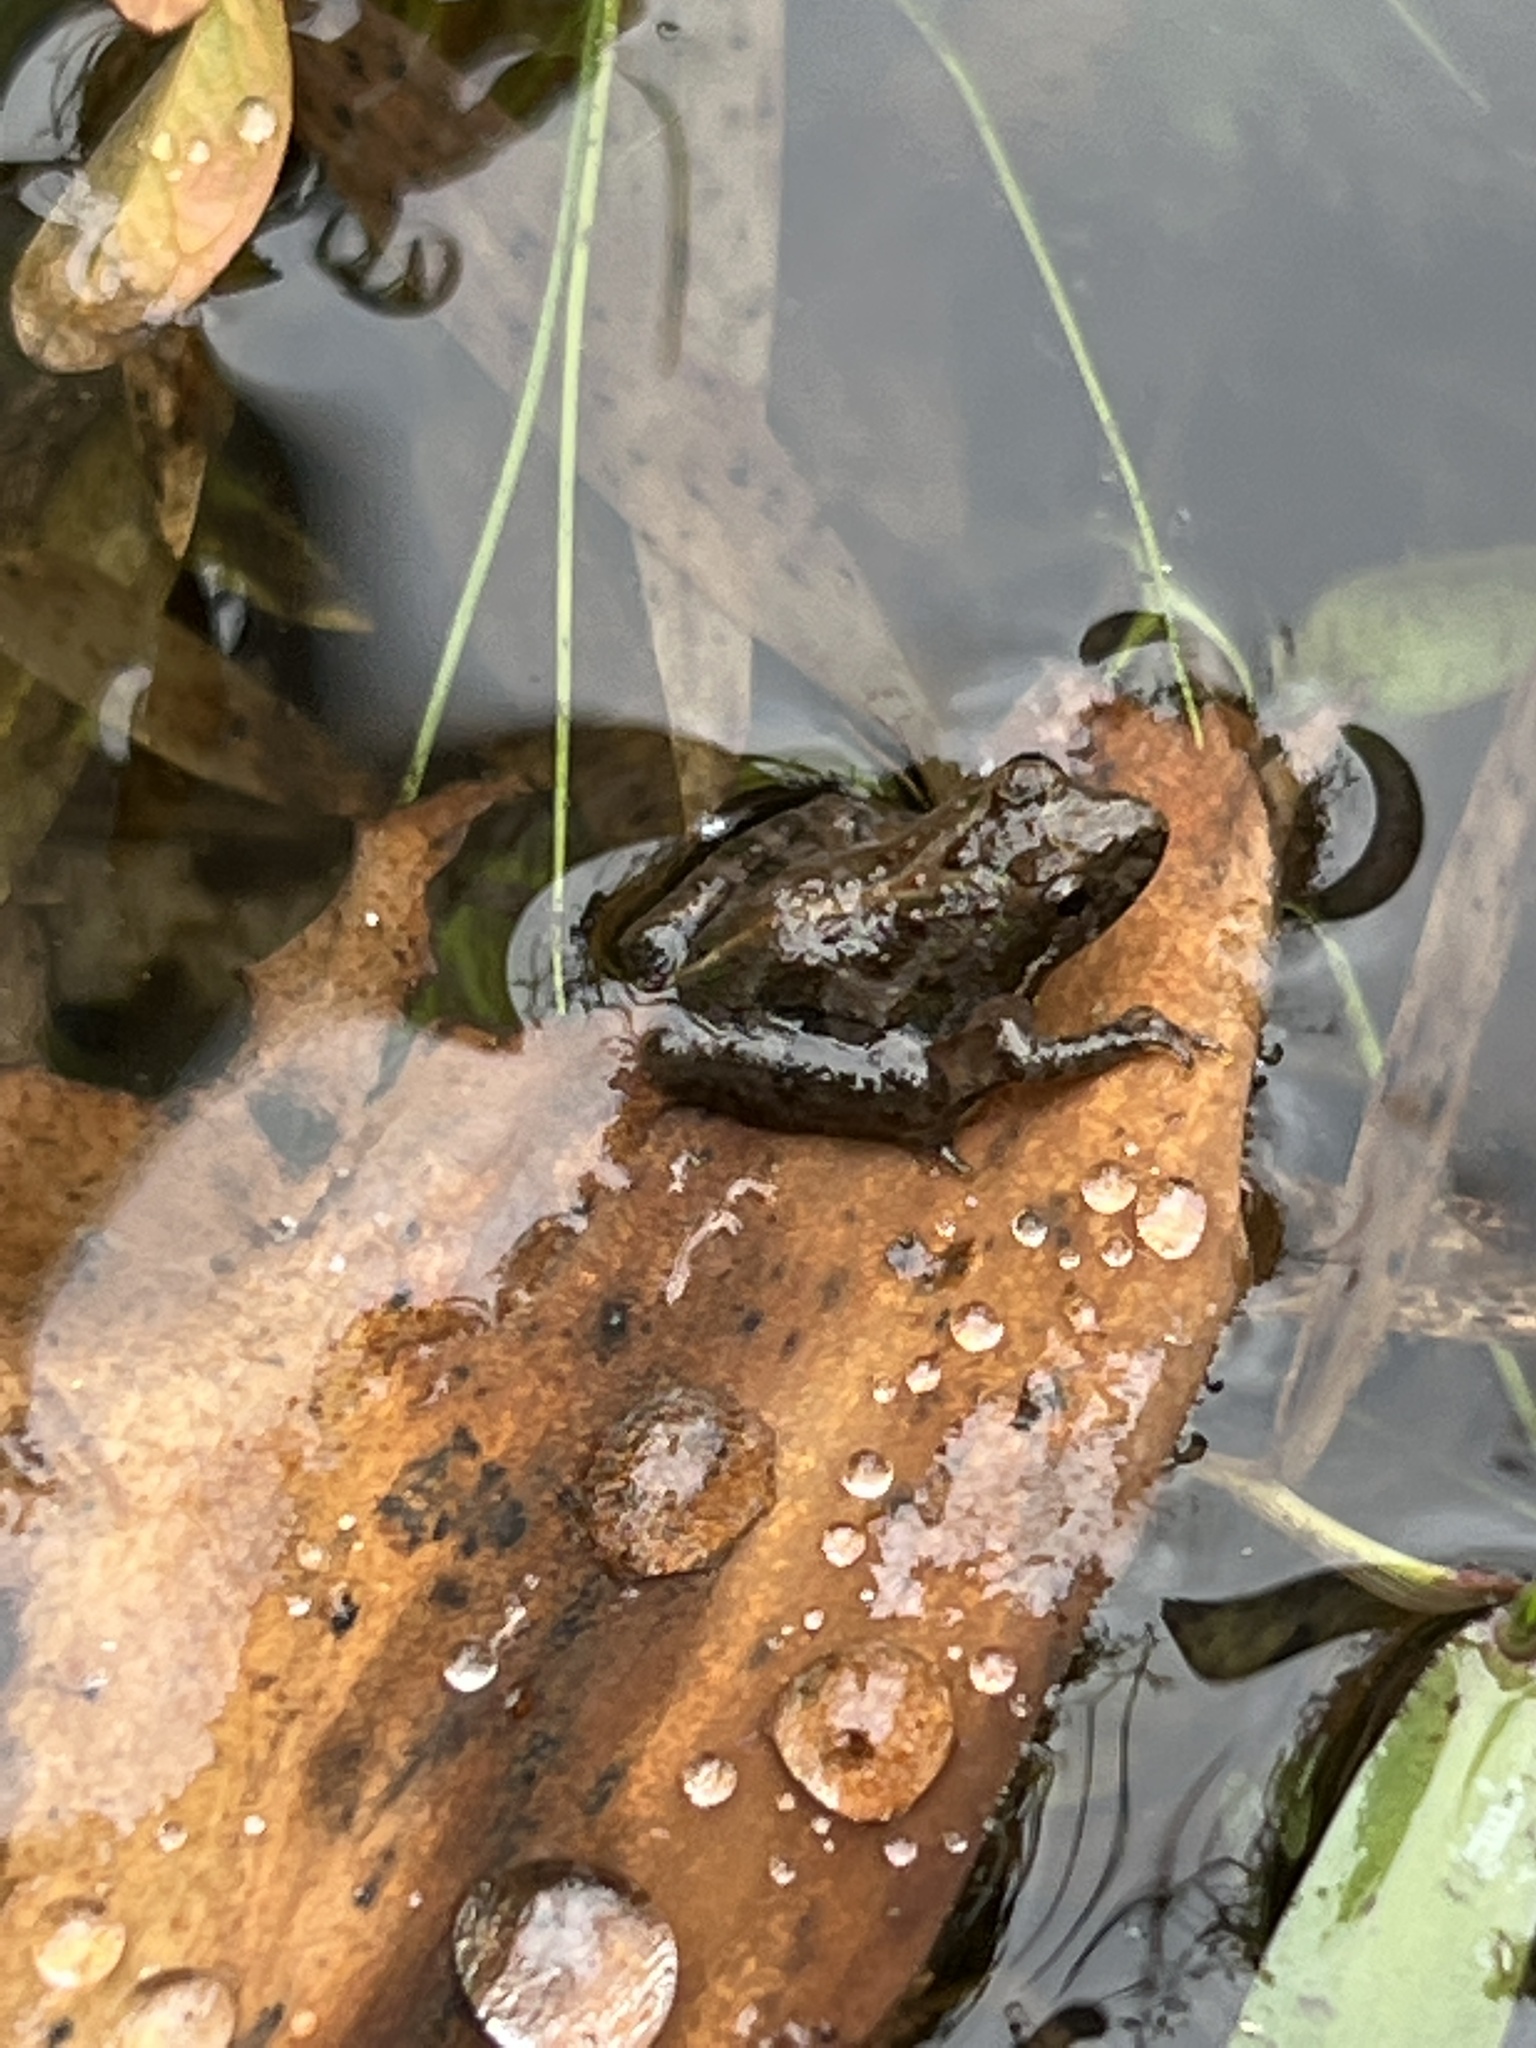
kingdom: Animalia
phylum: Chordata
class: Amphibia
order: Anura
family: Hylidae
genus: Acris
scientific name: Acris gryllus
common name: Southern cricket frog
